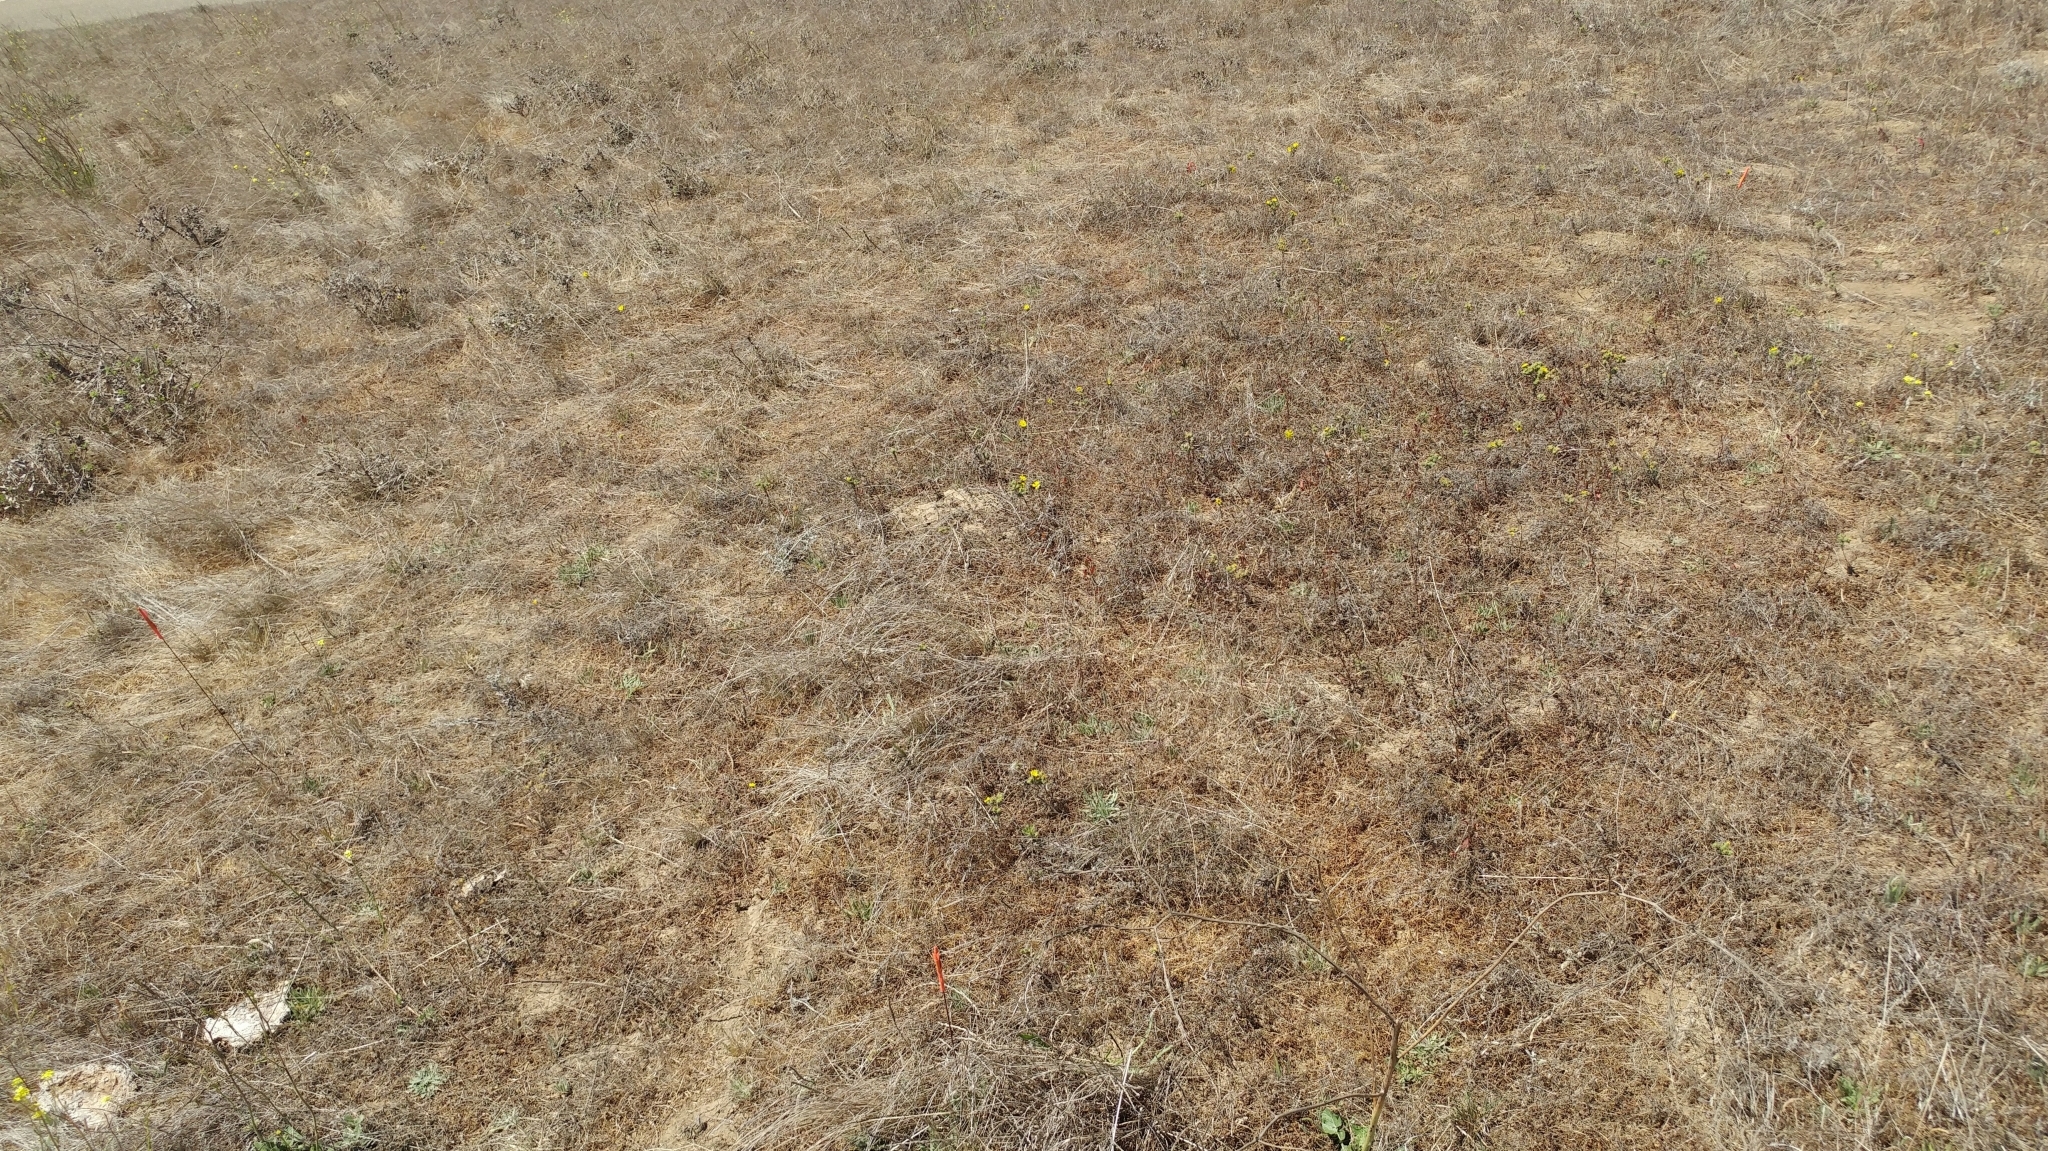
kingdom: Plantae
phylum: Tracheophyta
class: Magnoliopsida
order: Asterales
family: Asteraceae
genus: Deinandra
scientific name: Deinandra increscens
